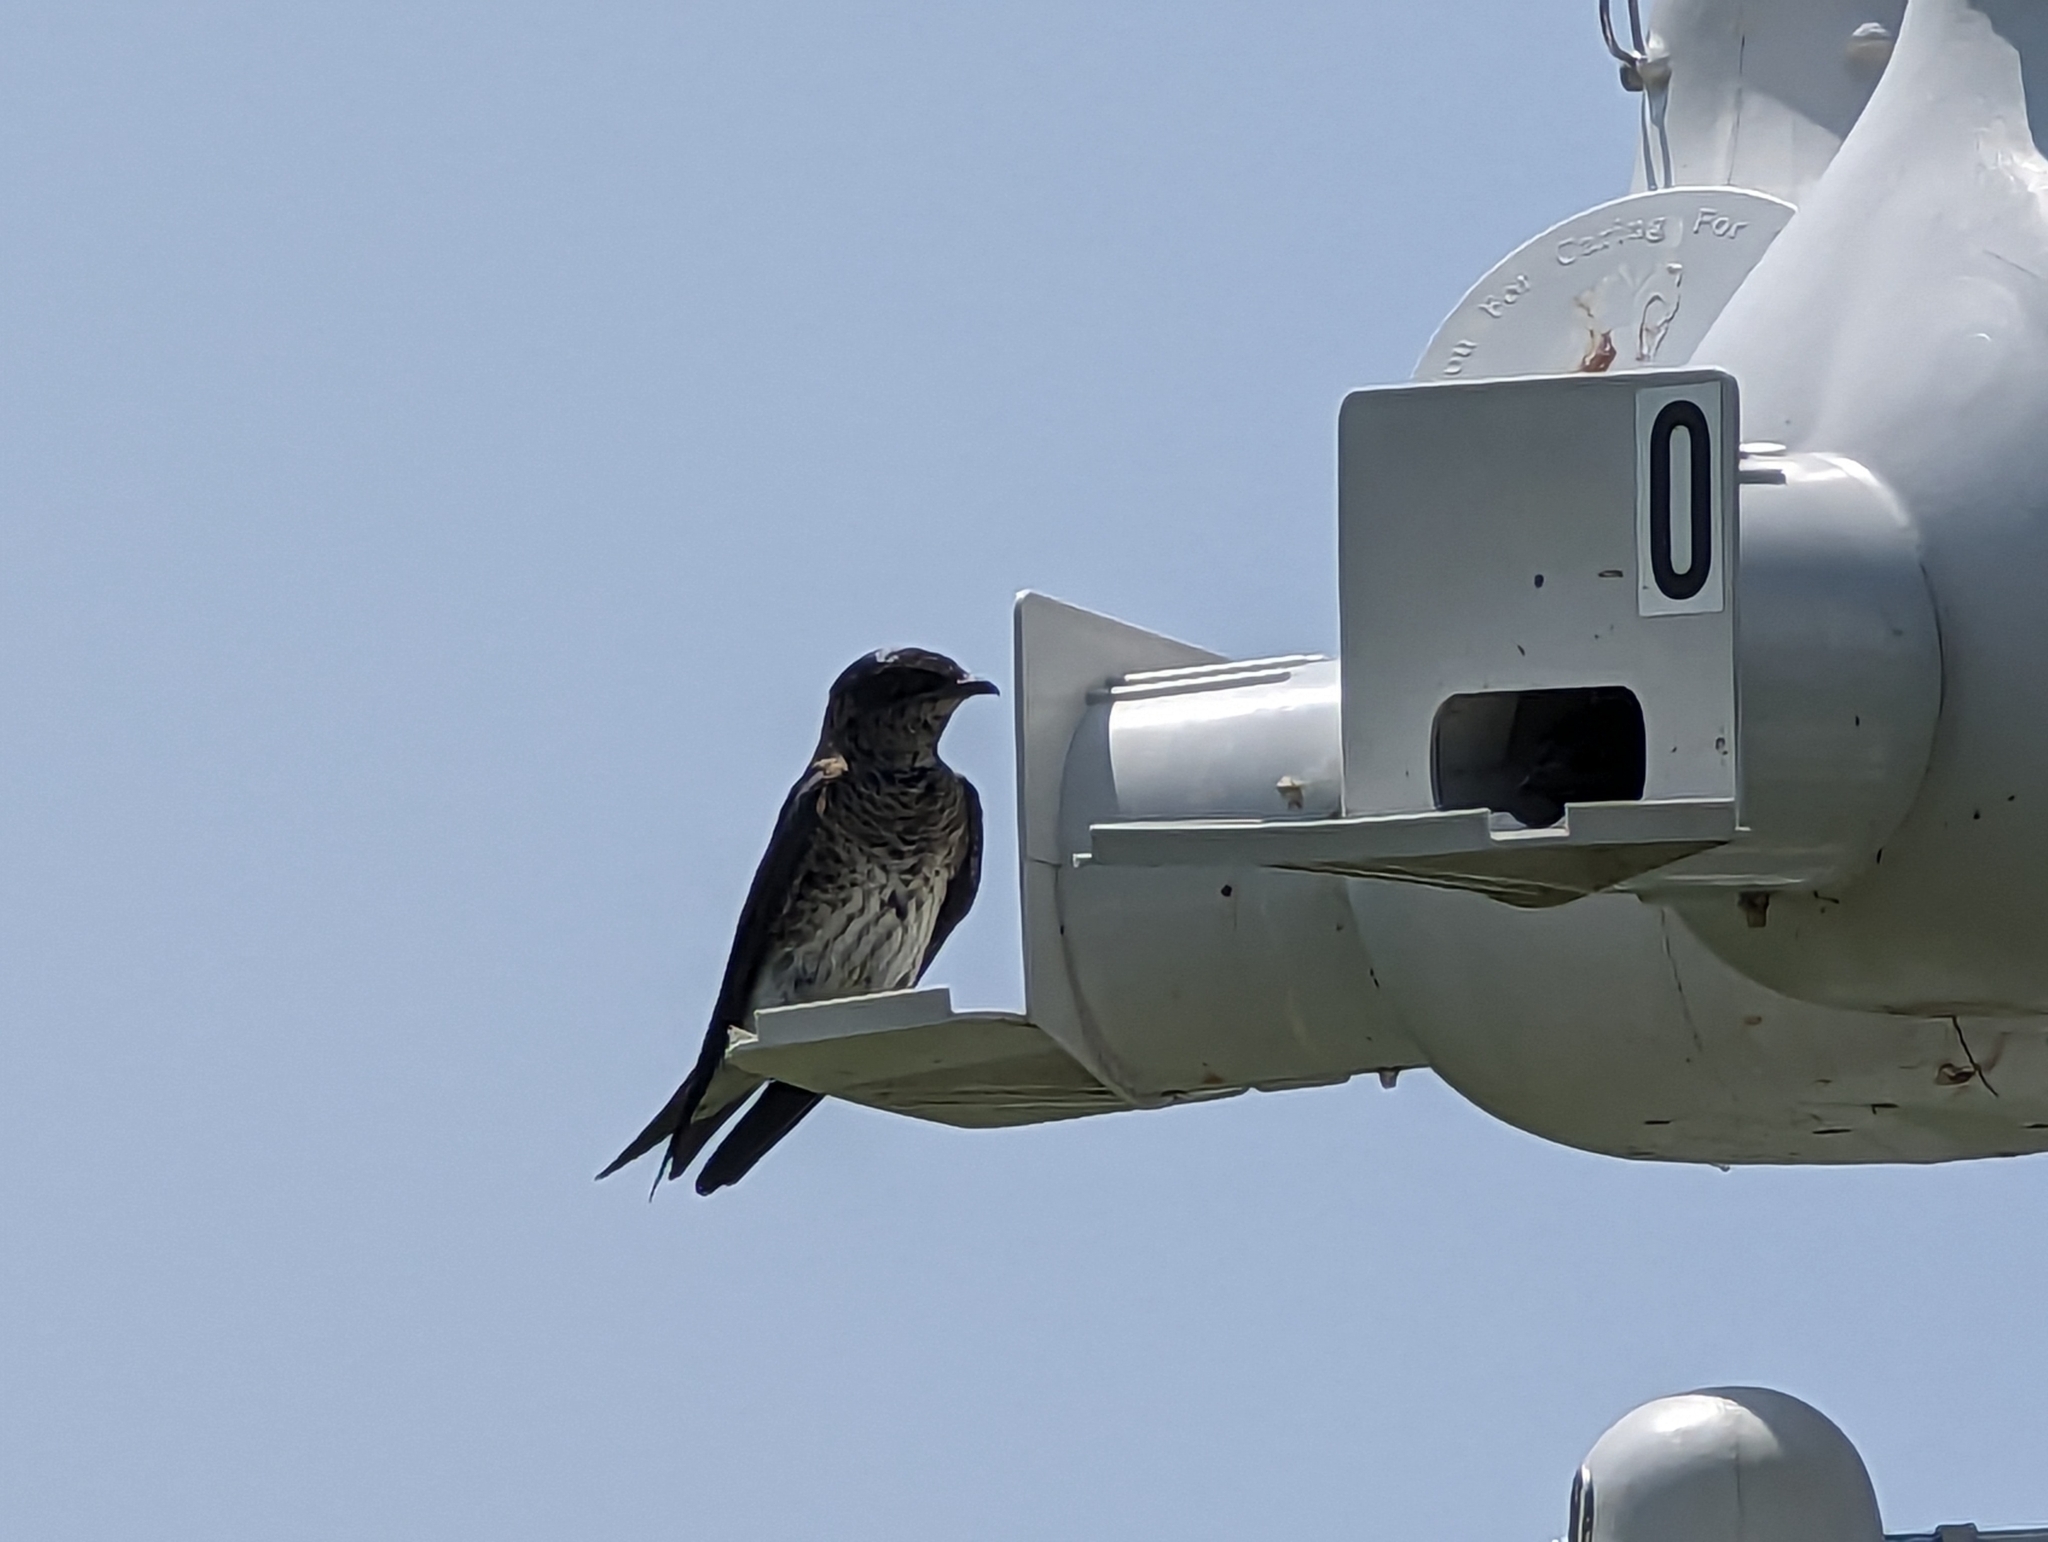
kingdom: Animalia
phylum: Chordata
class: Aves
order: Passeriformes
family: Hirundinidae
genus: Progne
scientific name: Progne subis
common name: Purple martin
